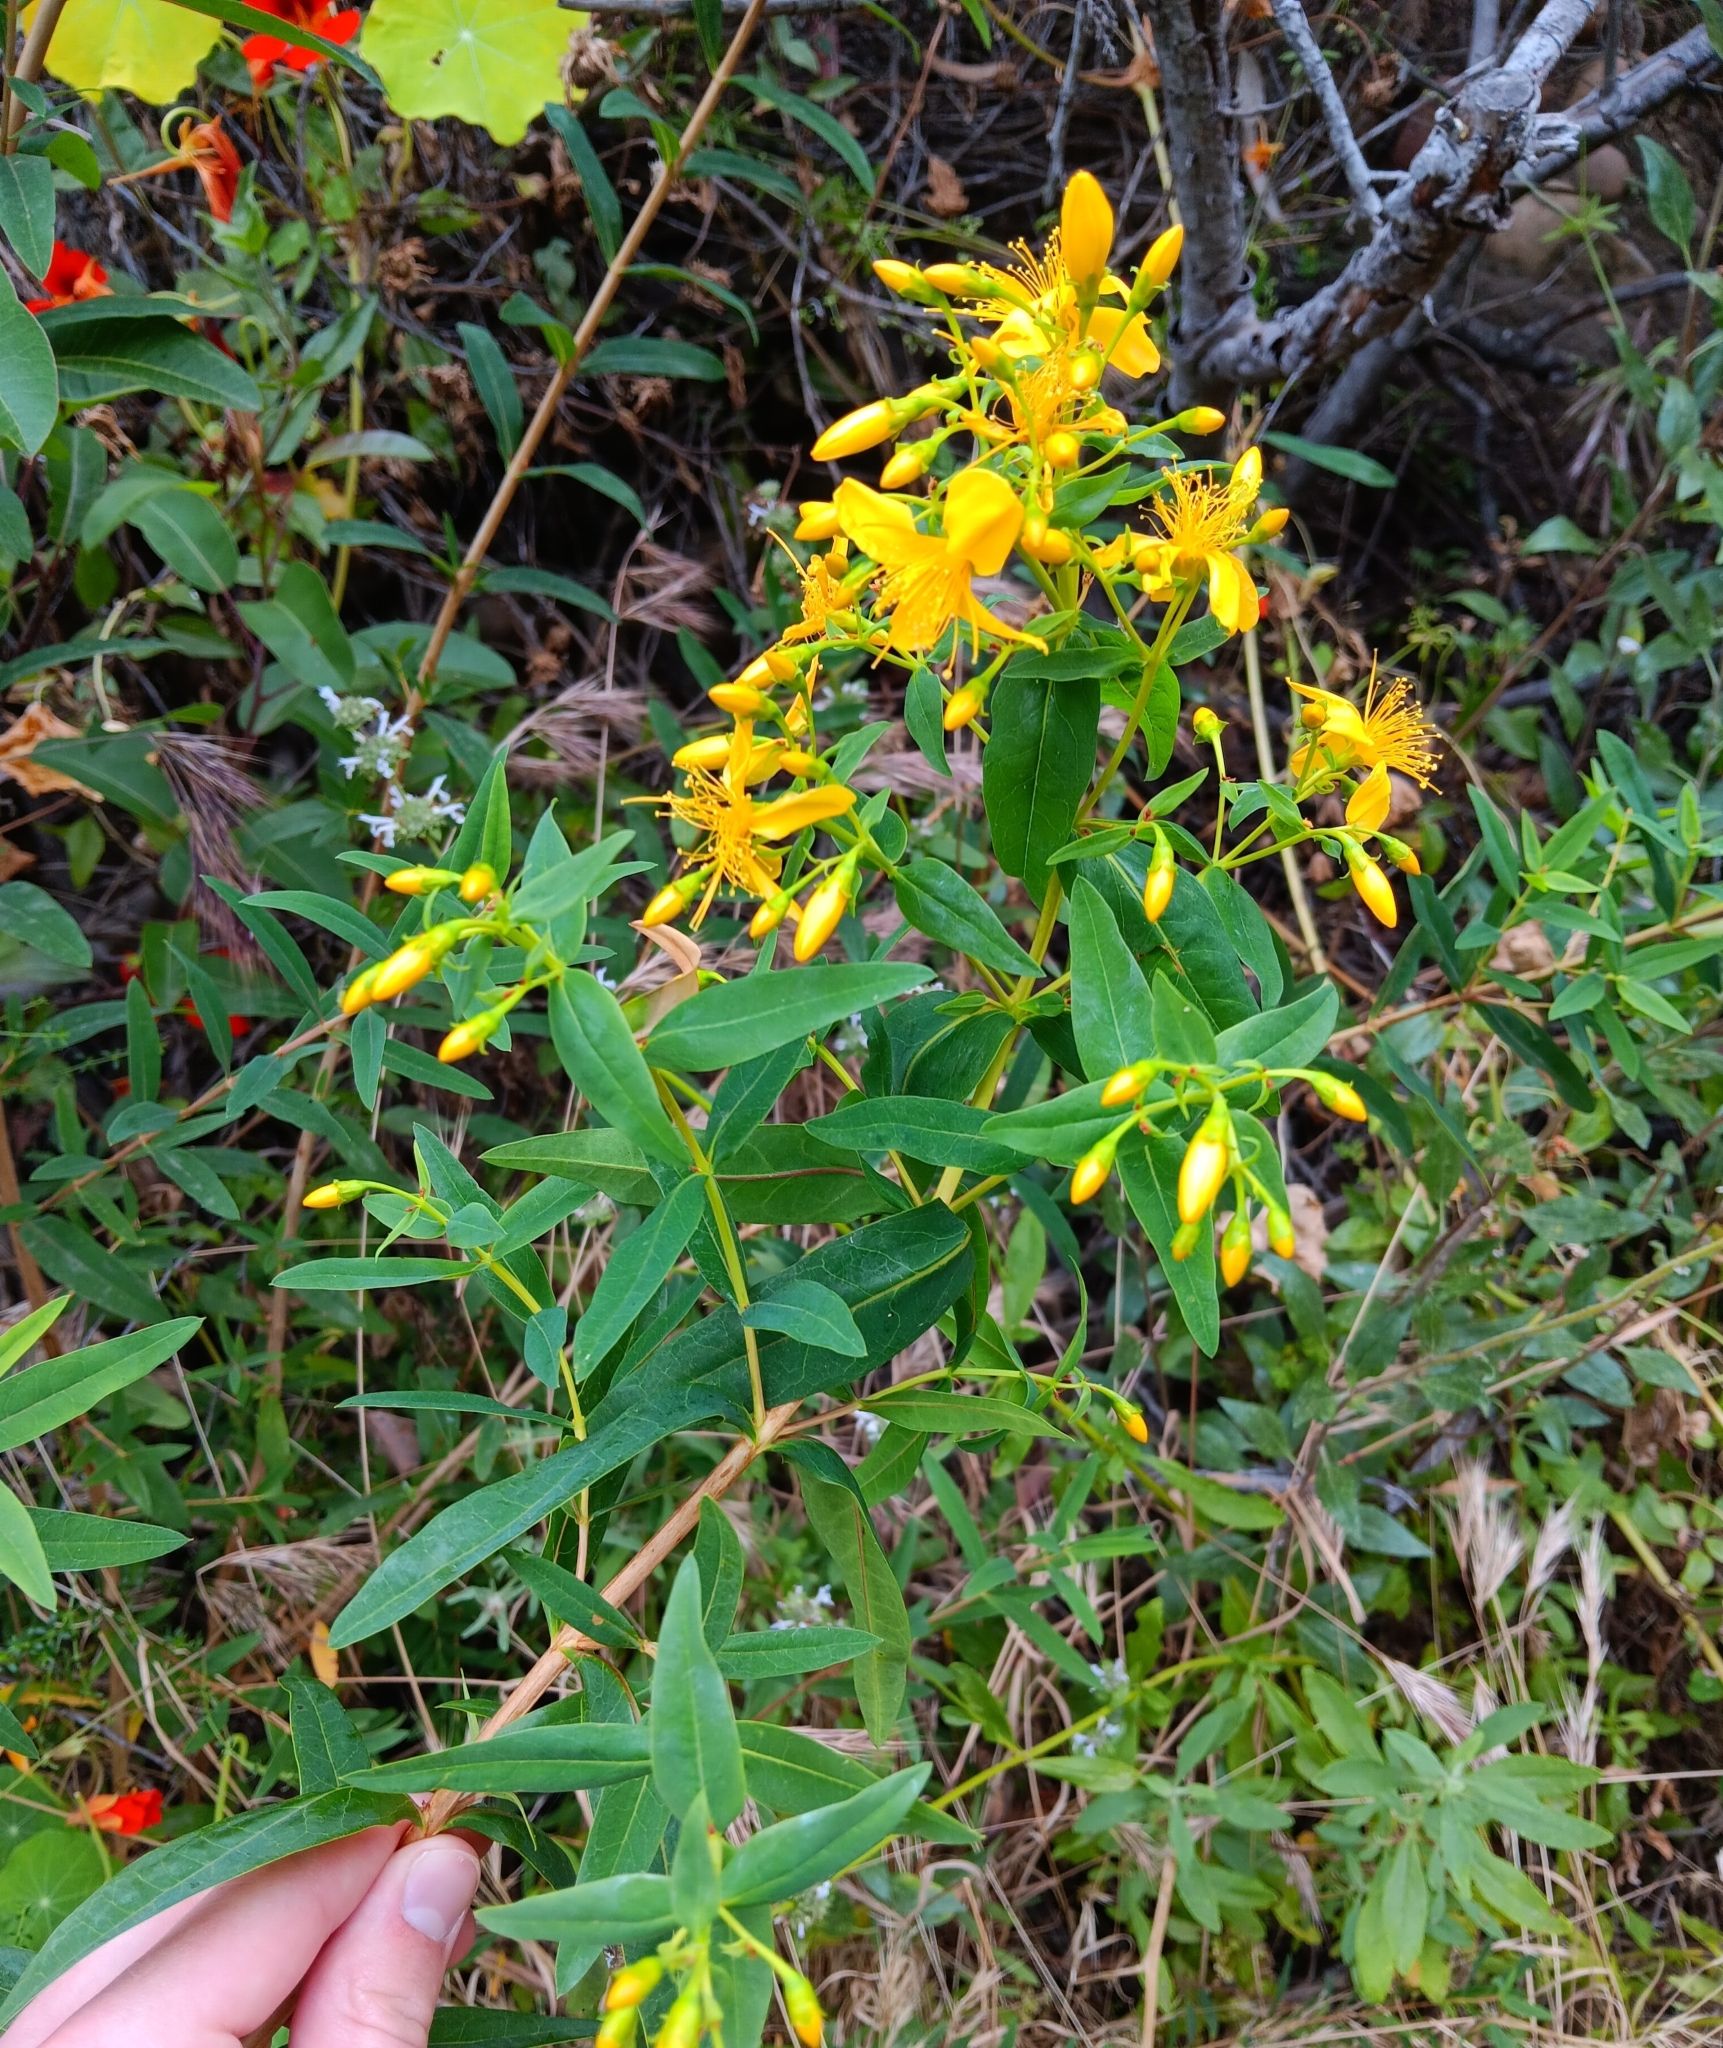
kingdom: Plantae
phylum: Tracheophyta
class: Magnoliopsida
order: Malpighiales
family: Hypericaceae
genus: Hypericum
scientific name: Hypericum canariense
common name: Canary island st. johnswort
